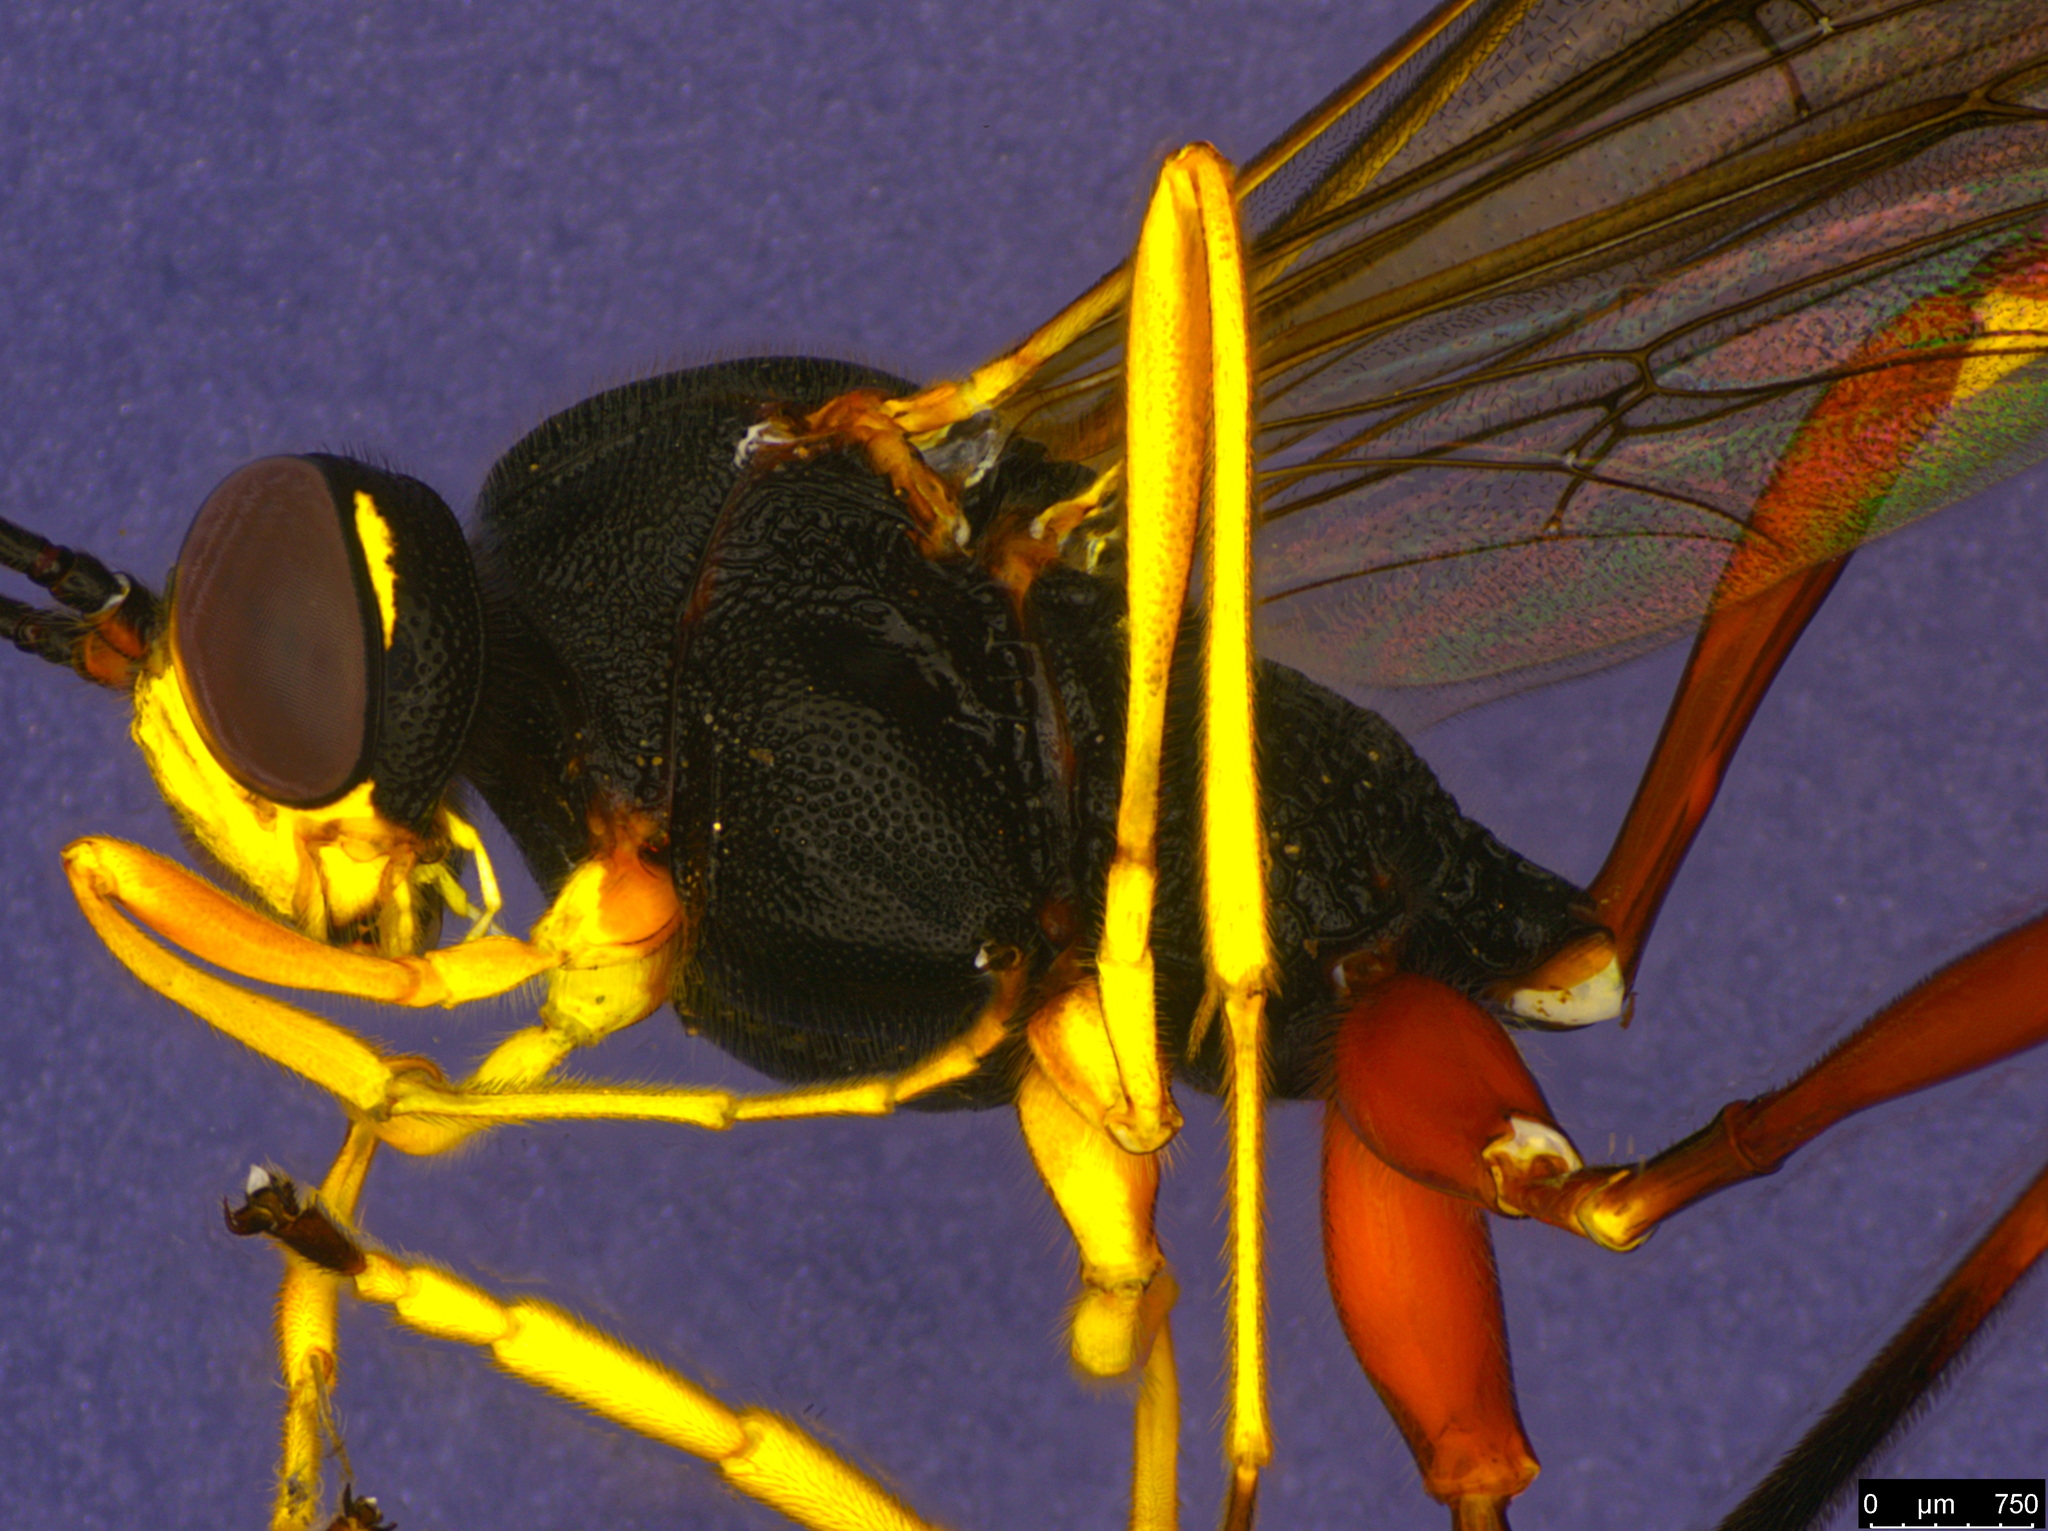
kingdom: Animalia
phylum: Arthropoda
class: Insecta
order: Hymenoptera
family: Ichneumonidae
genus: Heteropelma
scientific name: Heteropelma scaposum
